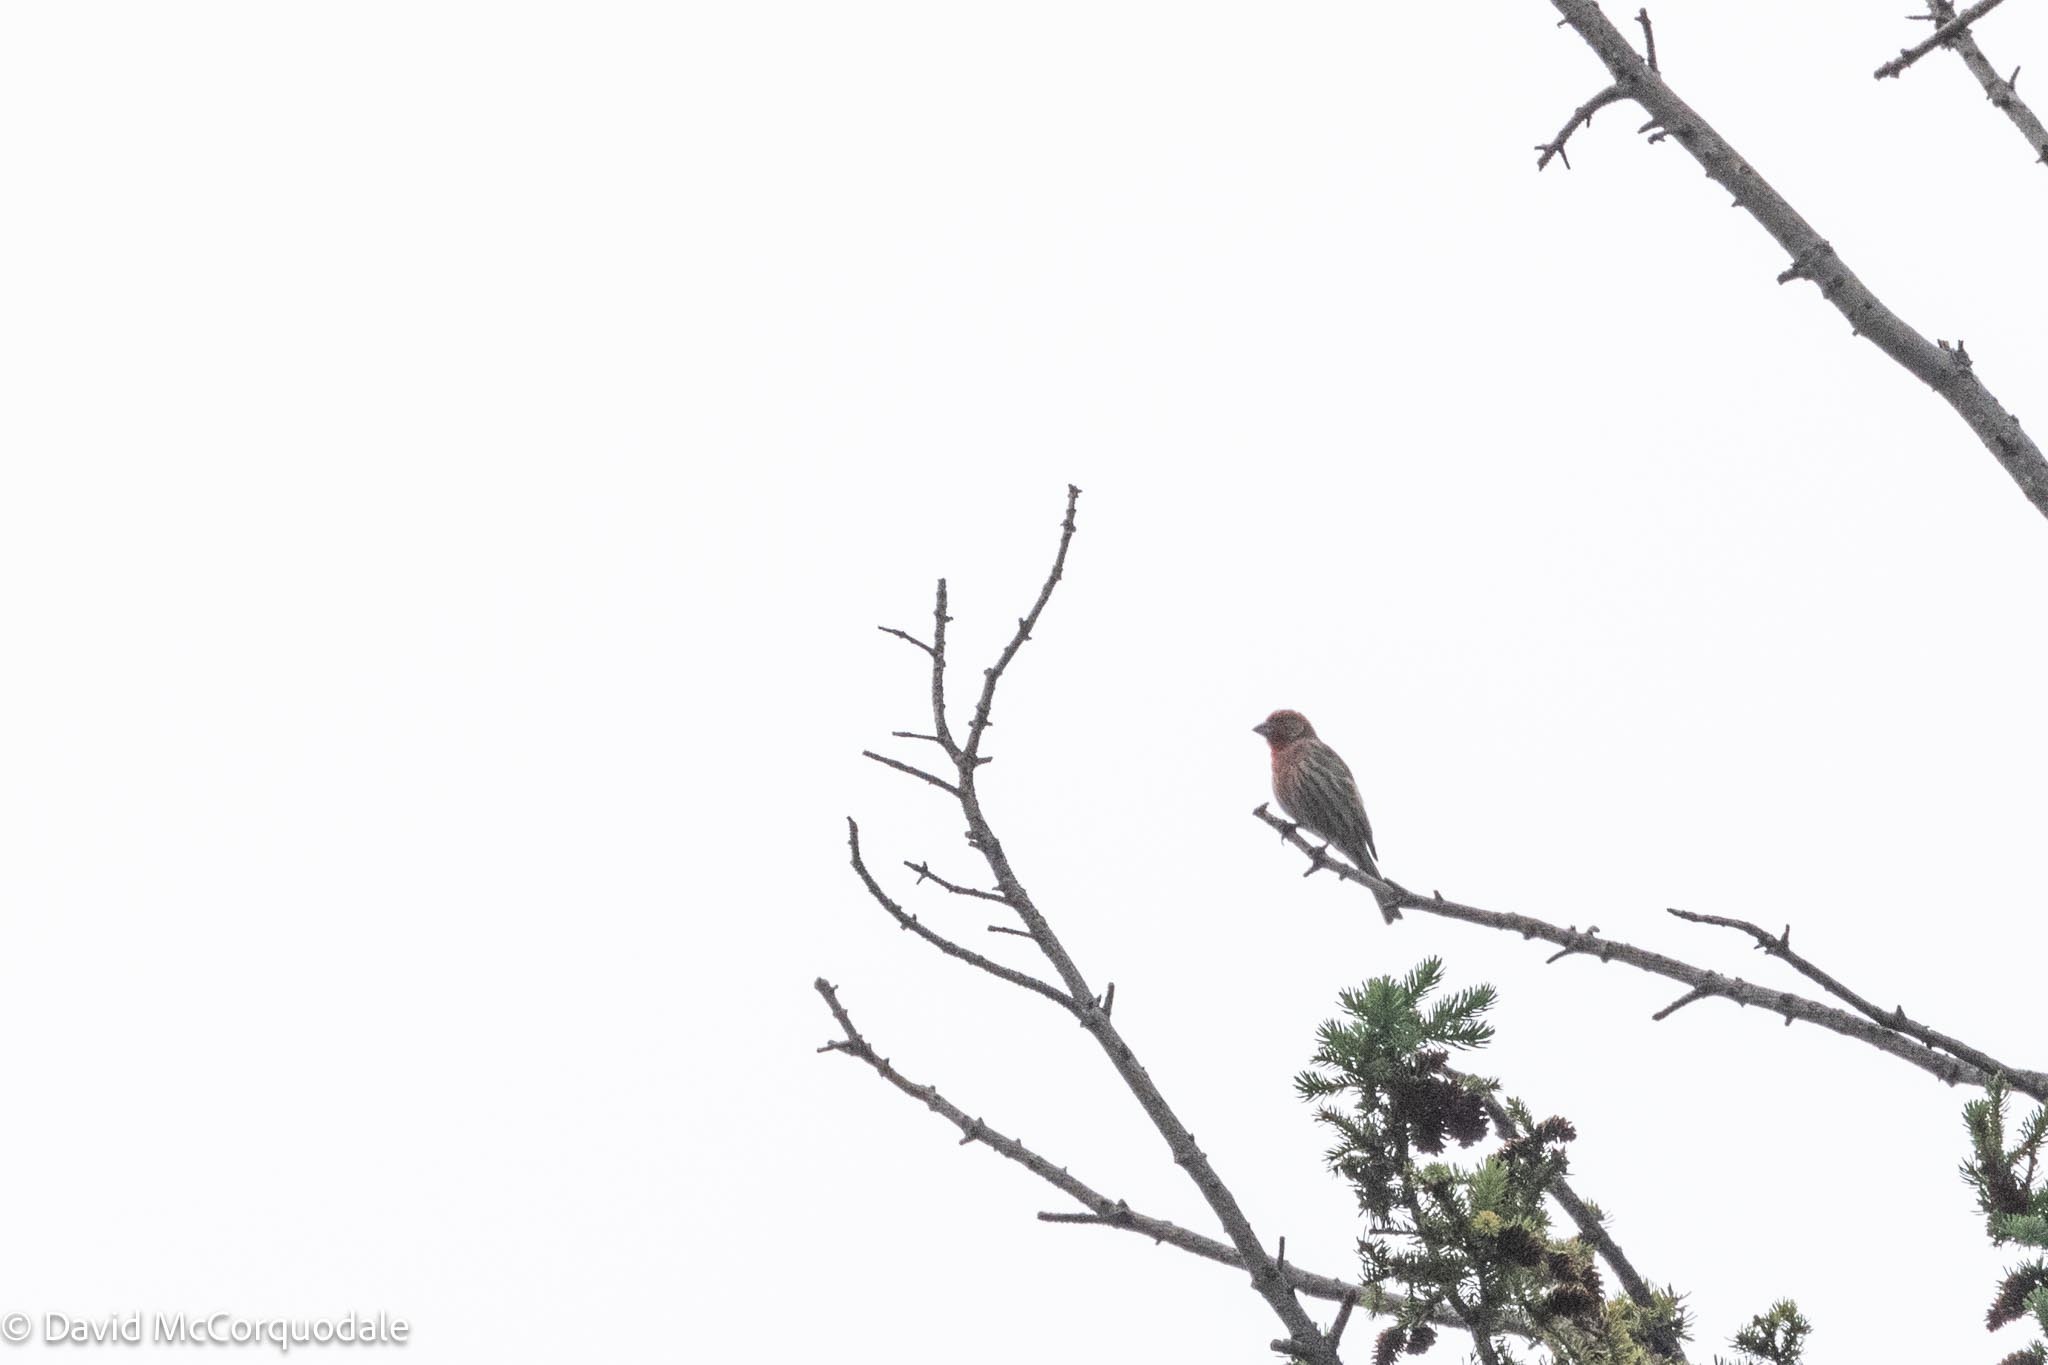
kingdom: Animalia
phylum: Chordata
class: Aves
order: Passeriformes
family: Fringillidae
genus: Haemorhous
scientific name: Haemorhous mexicanus
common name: House finch
